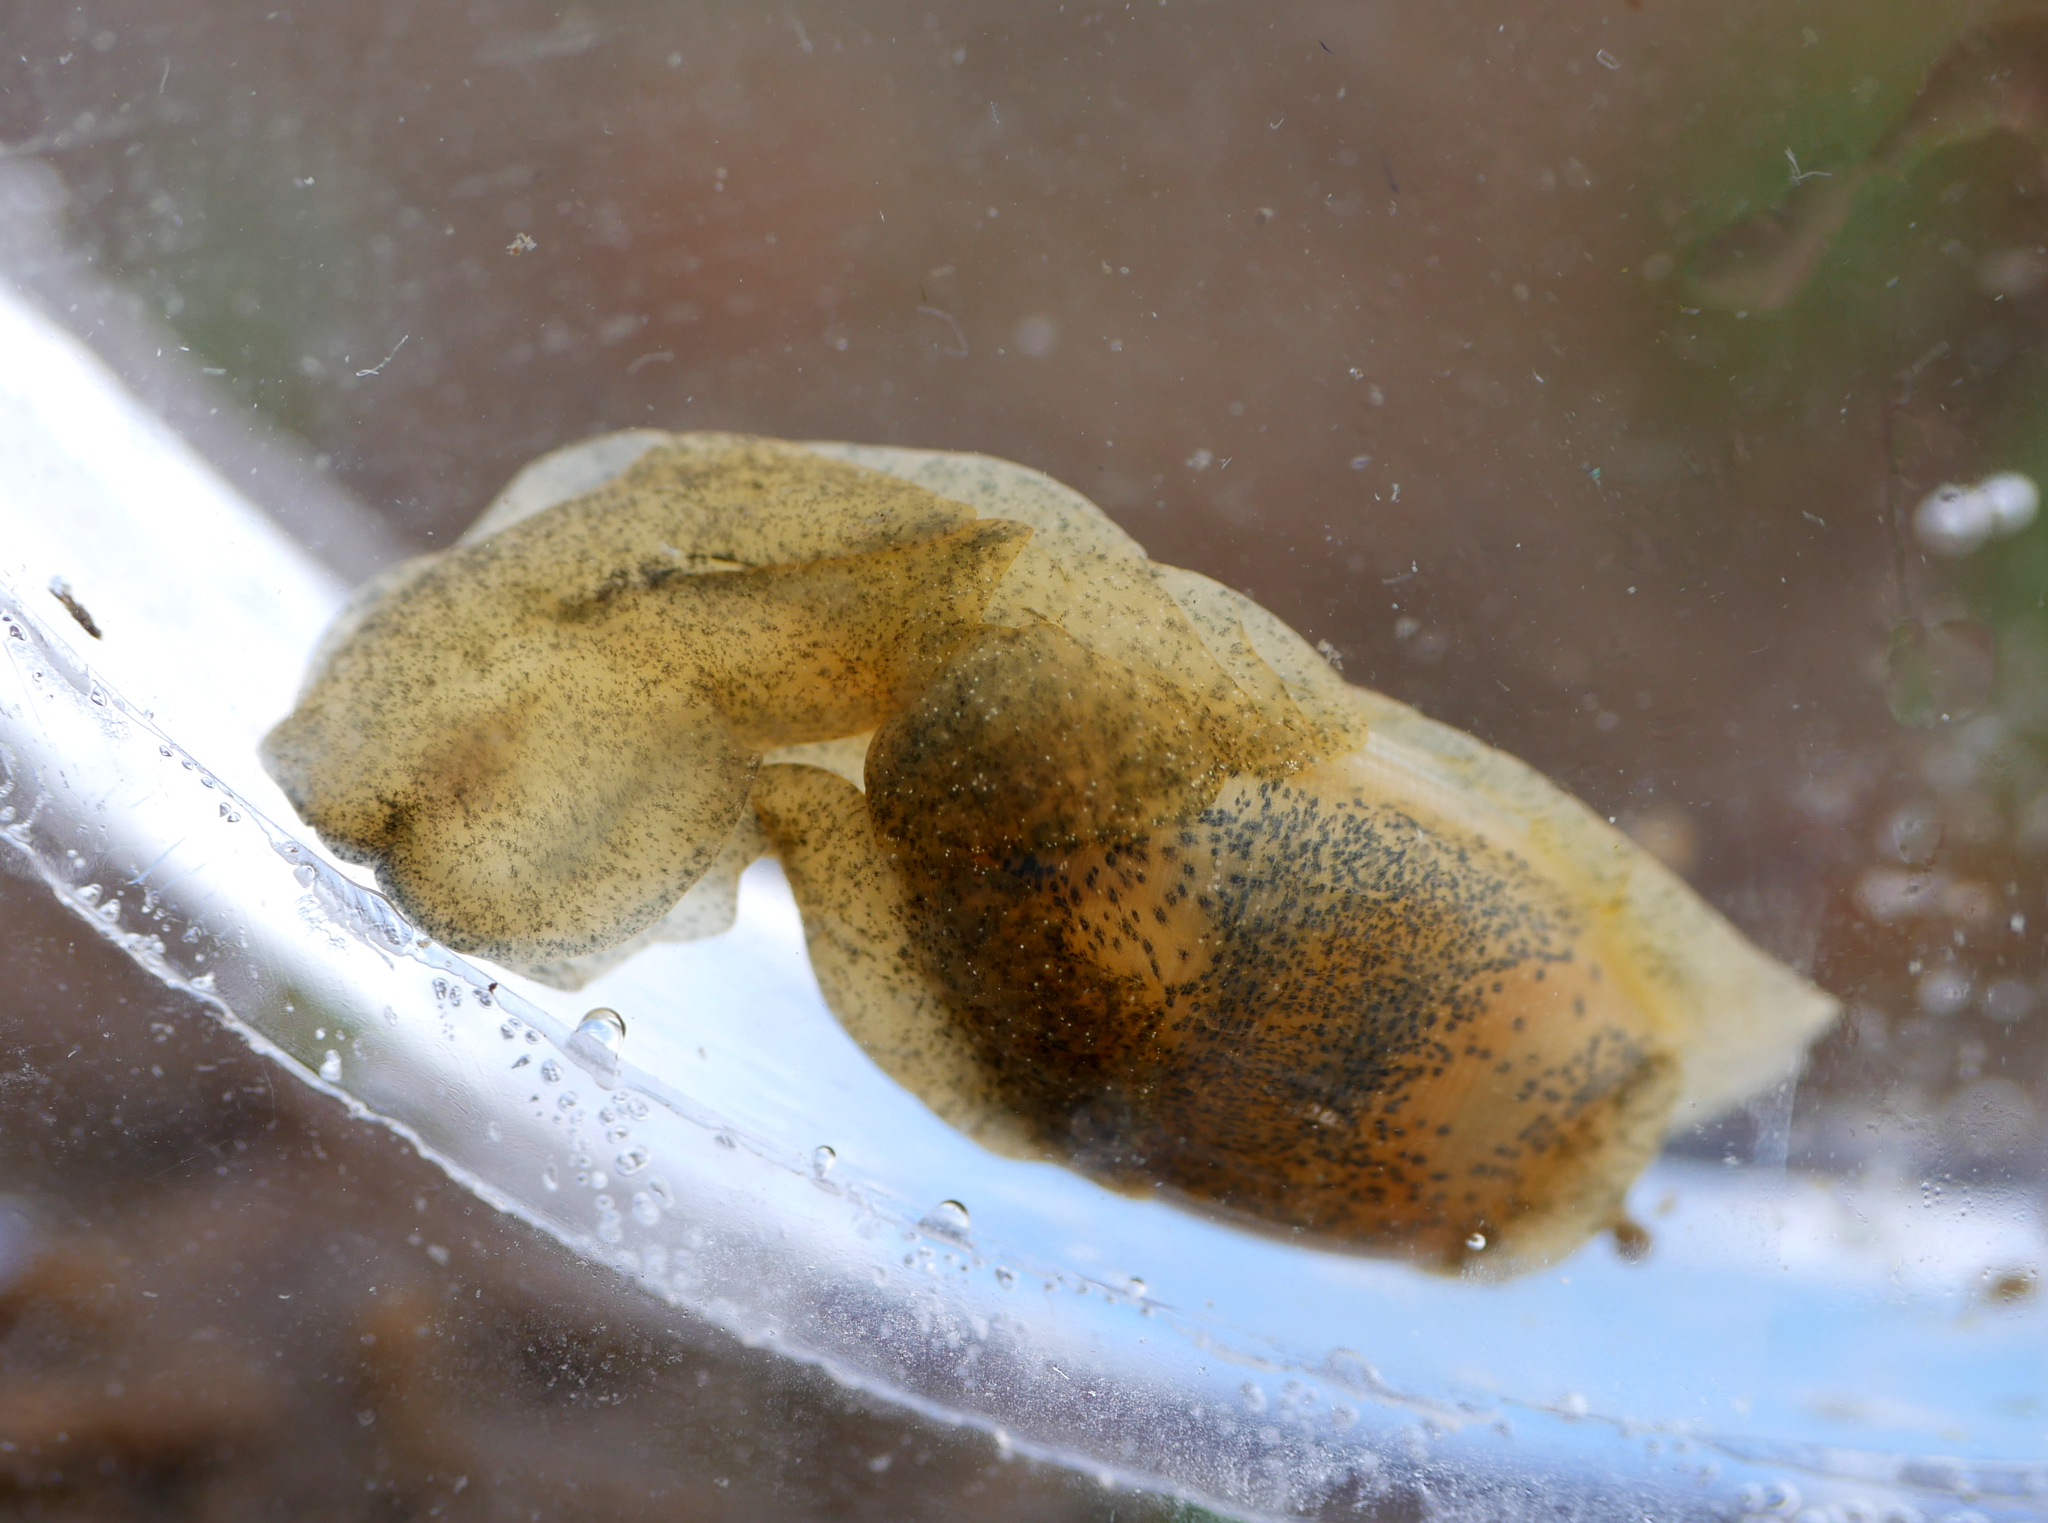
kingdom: Animalia
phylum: Mollusca
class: Gastropoda
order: Cephalaspidea
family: Haminoeidae
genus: Haminella
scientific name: Haminella solitaria
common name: Solitary glassy-bubble
